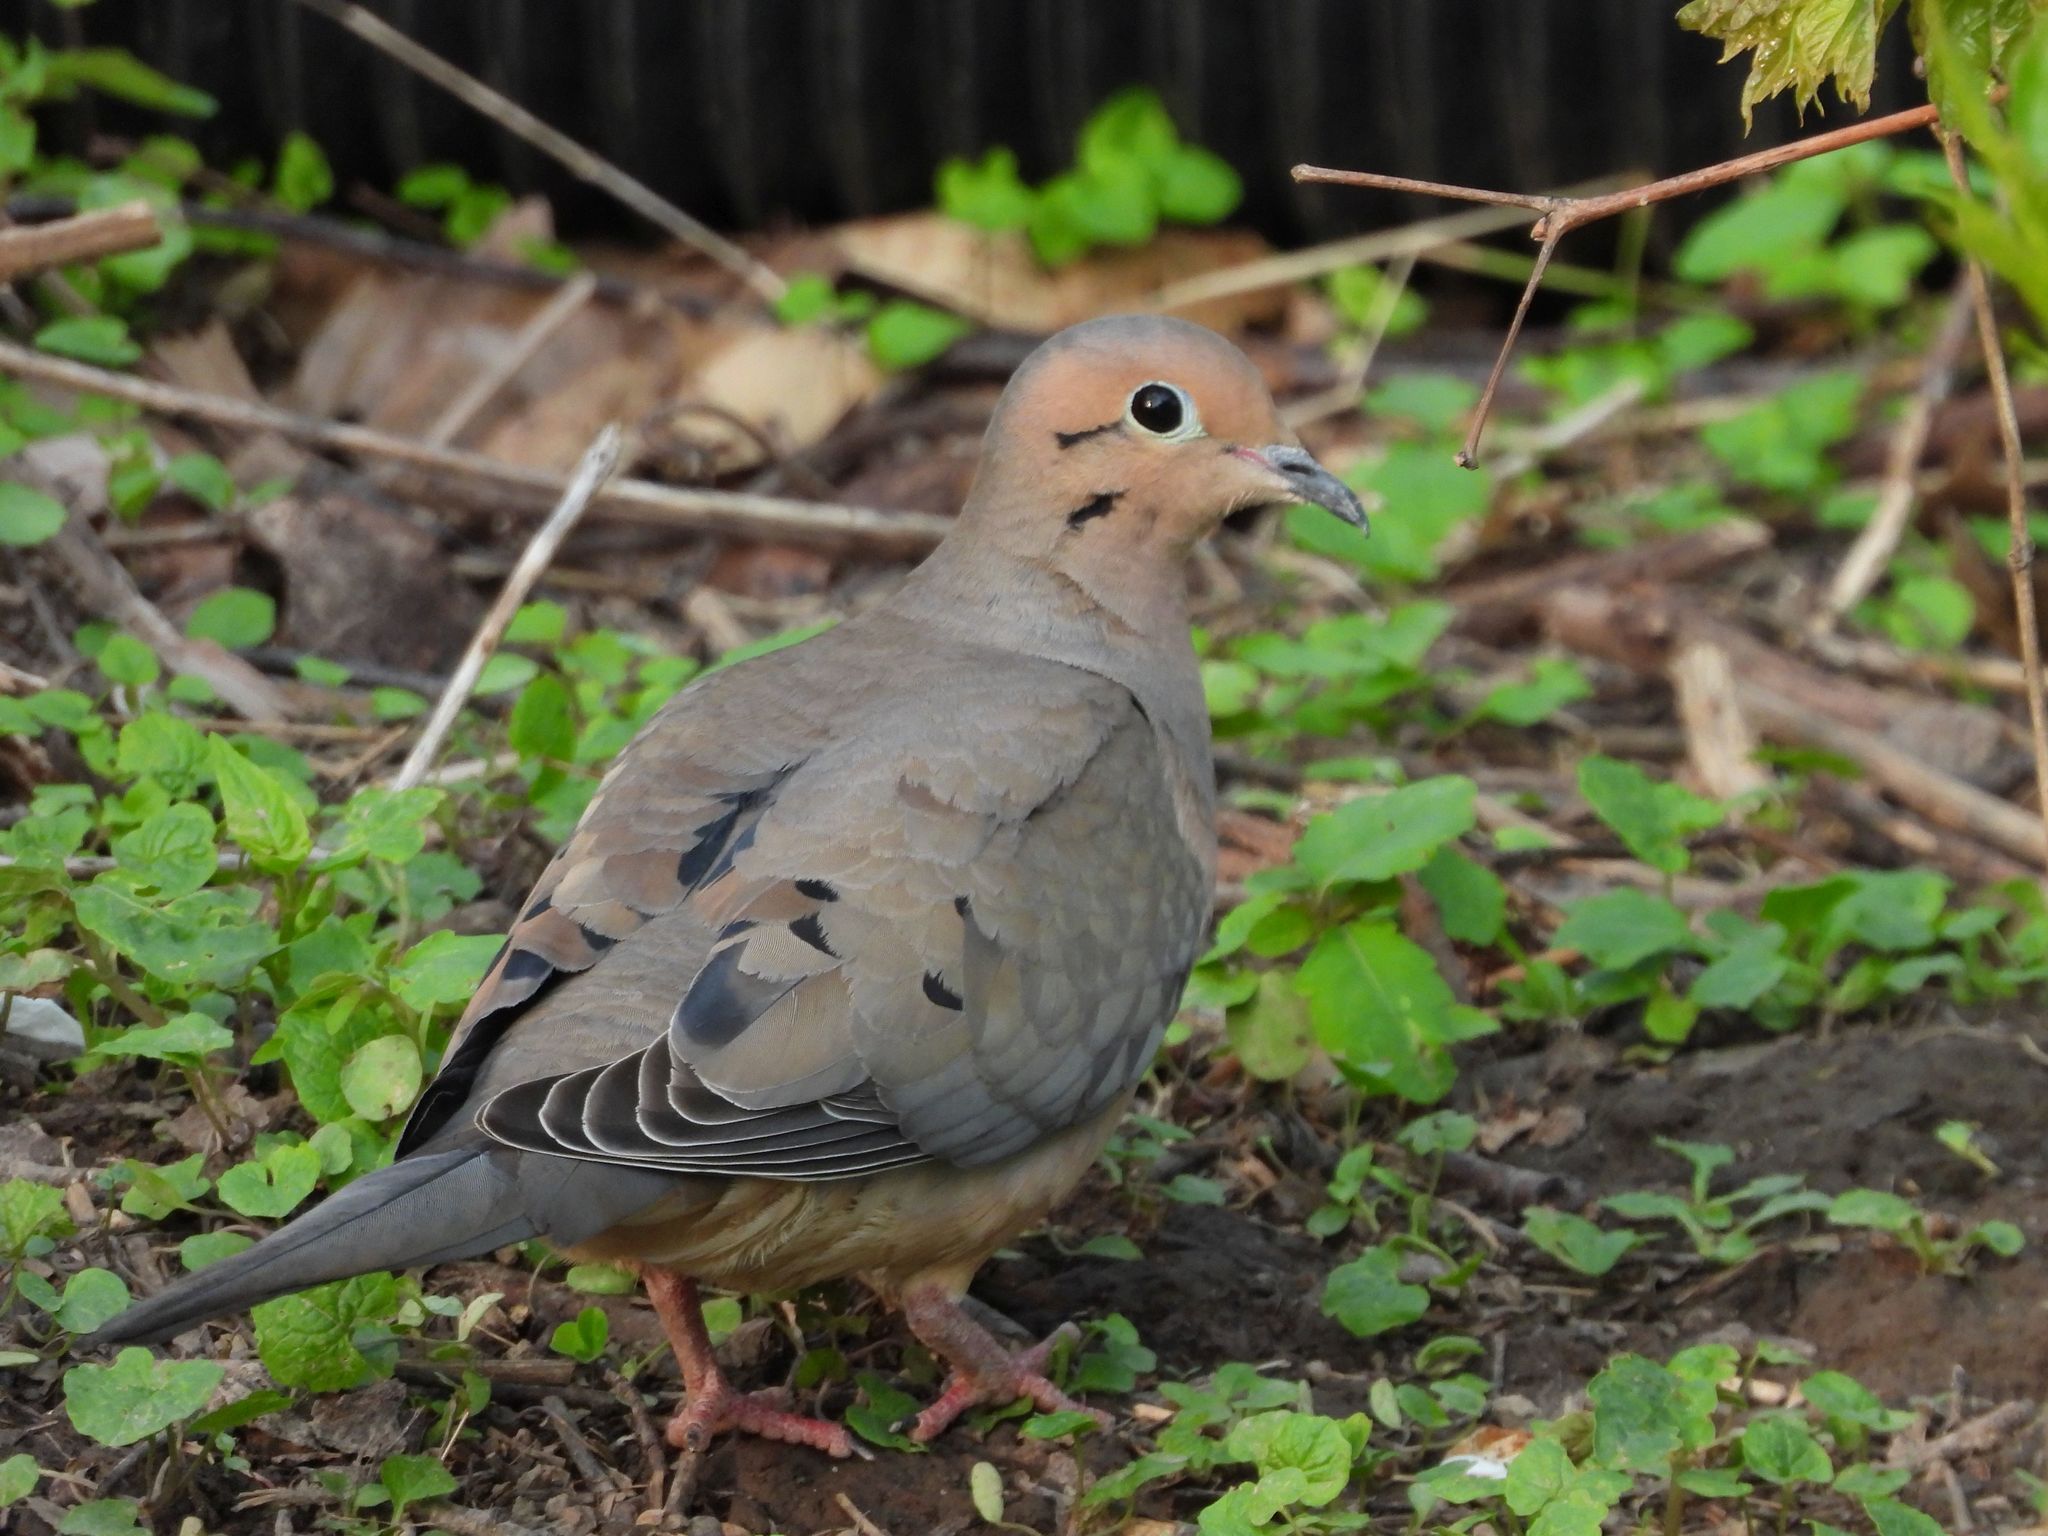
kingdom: Animalia
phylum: Chordata
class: Aves
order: Columbiformes
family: Columbidae
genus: Zenaida
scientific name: Zenaida macroura
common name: Mourning dove
